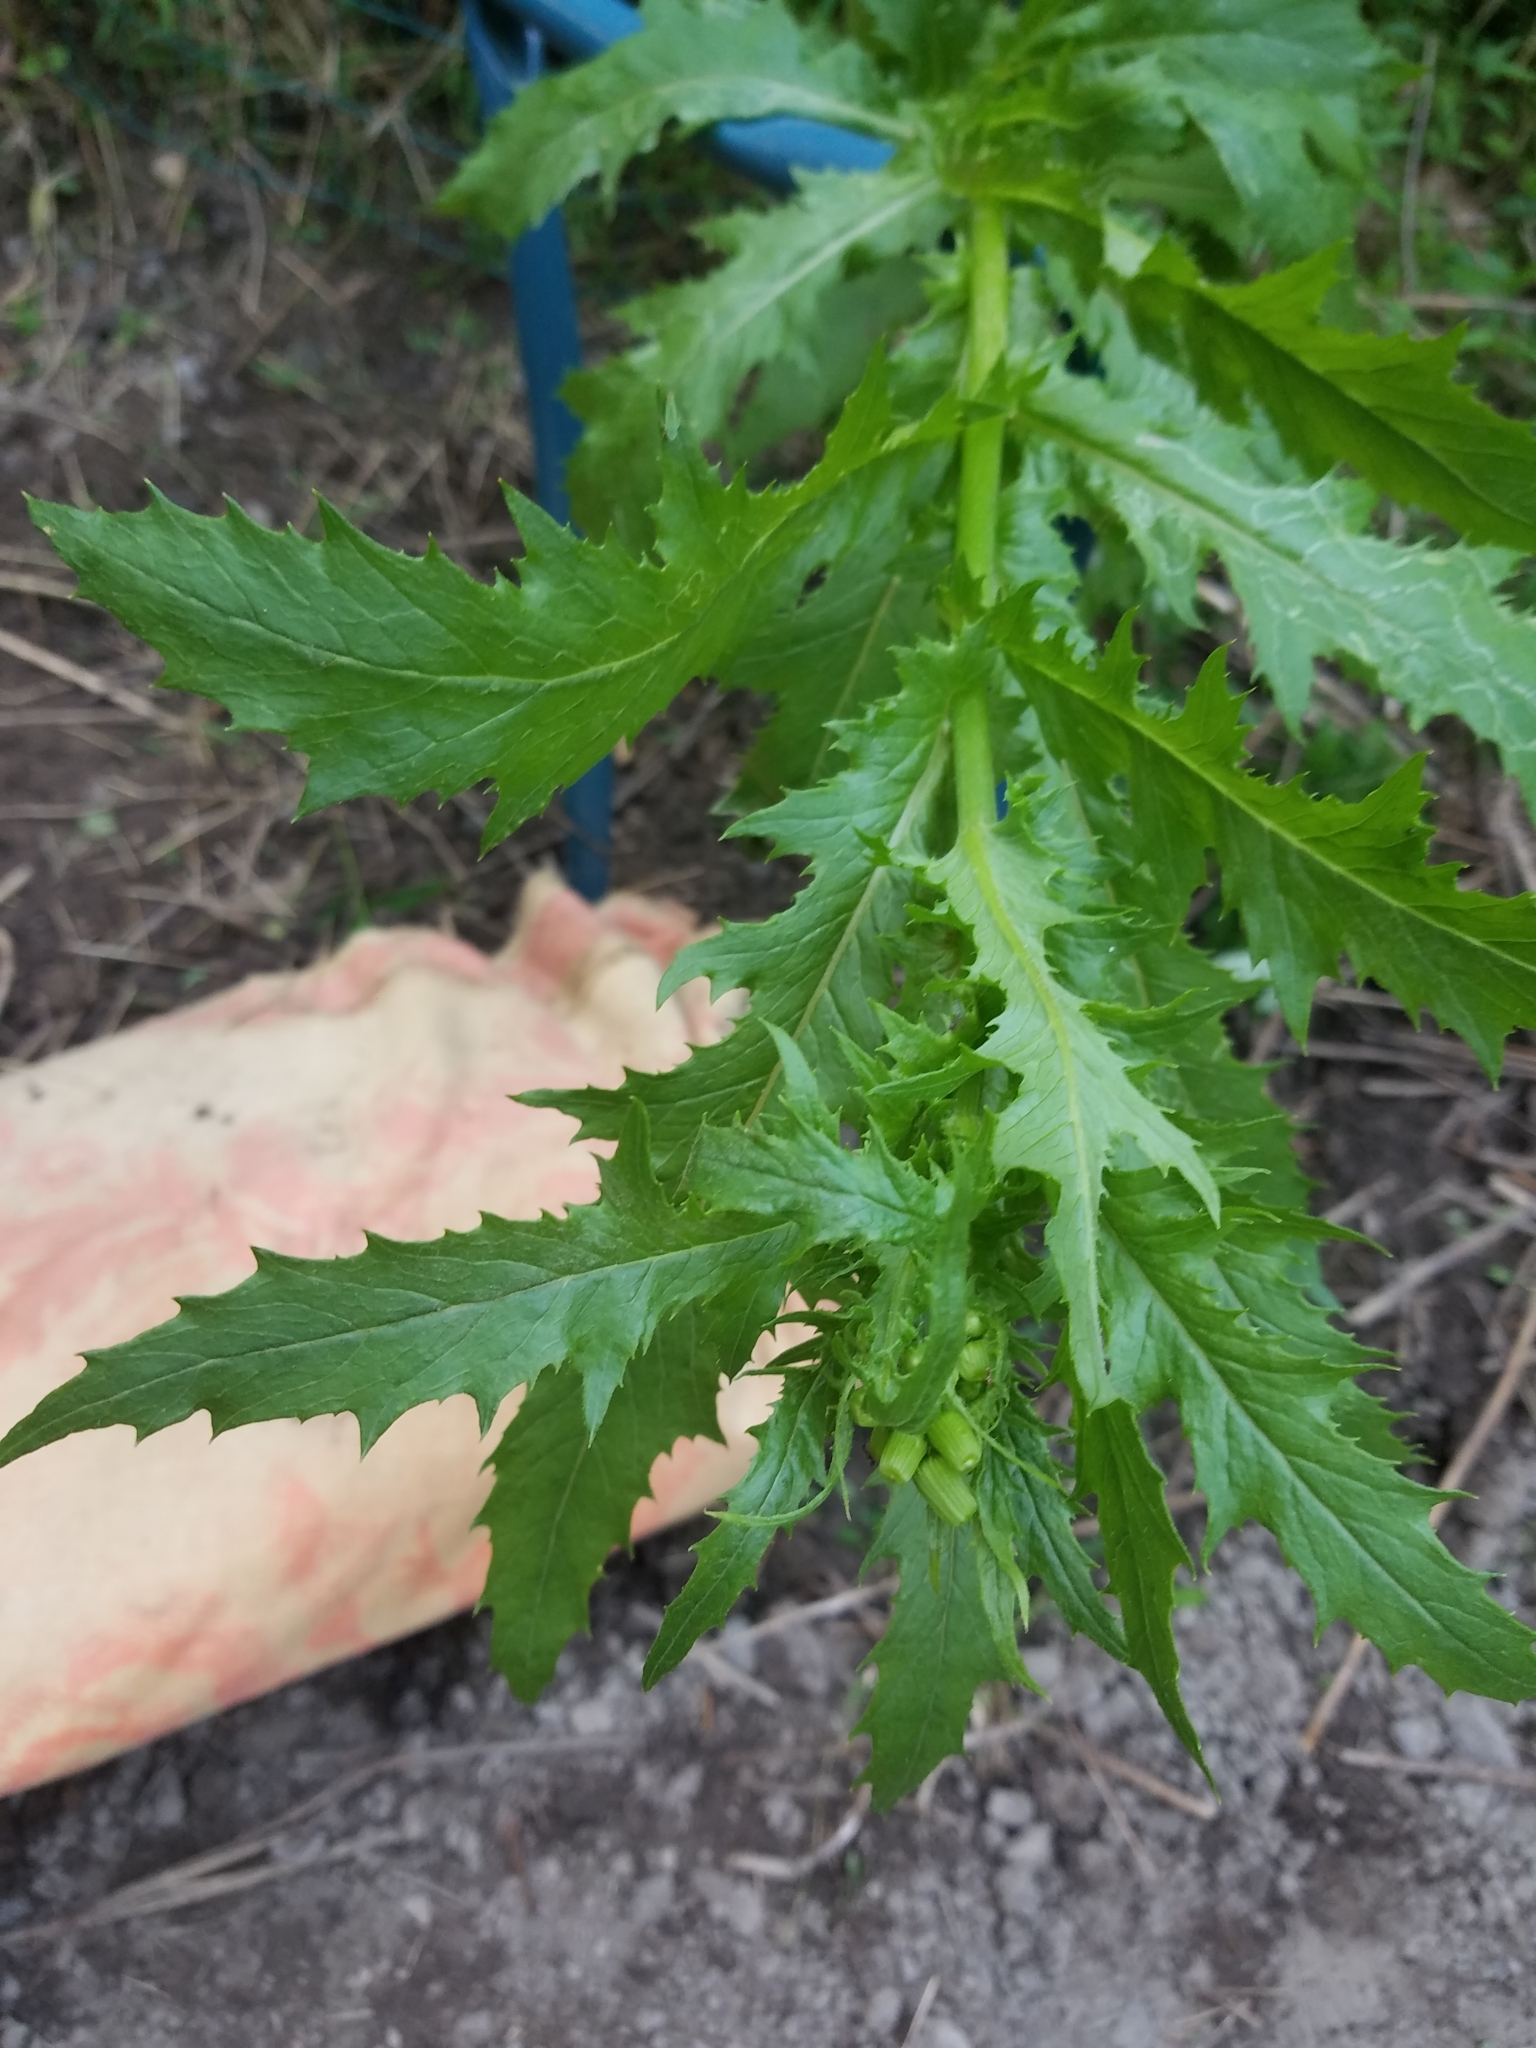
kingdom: Plantae
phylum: Tracheophyta
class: Magnoliopsida
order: Asterales
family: Asteraceae
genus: Erechtites
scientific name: Erechtites hieraciifolius
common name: American burnweed
